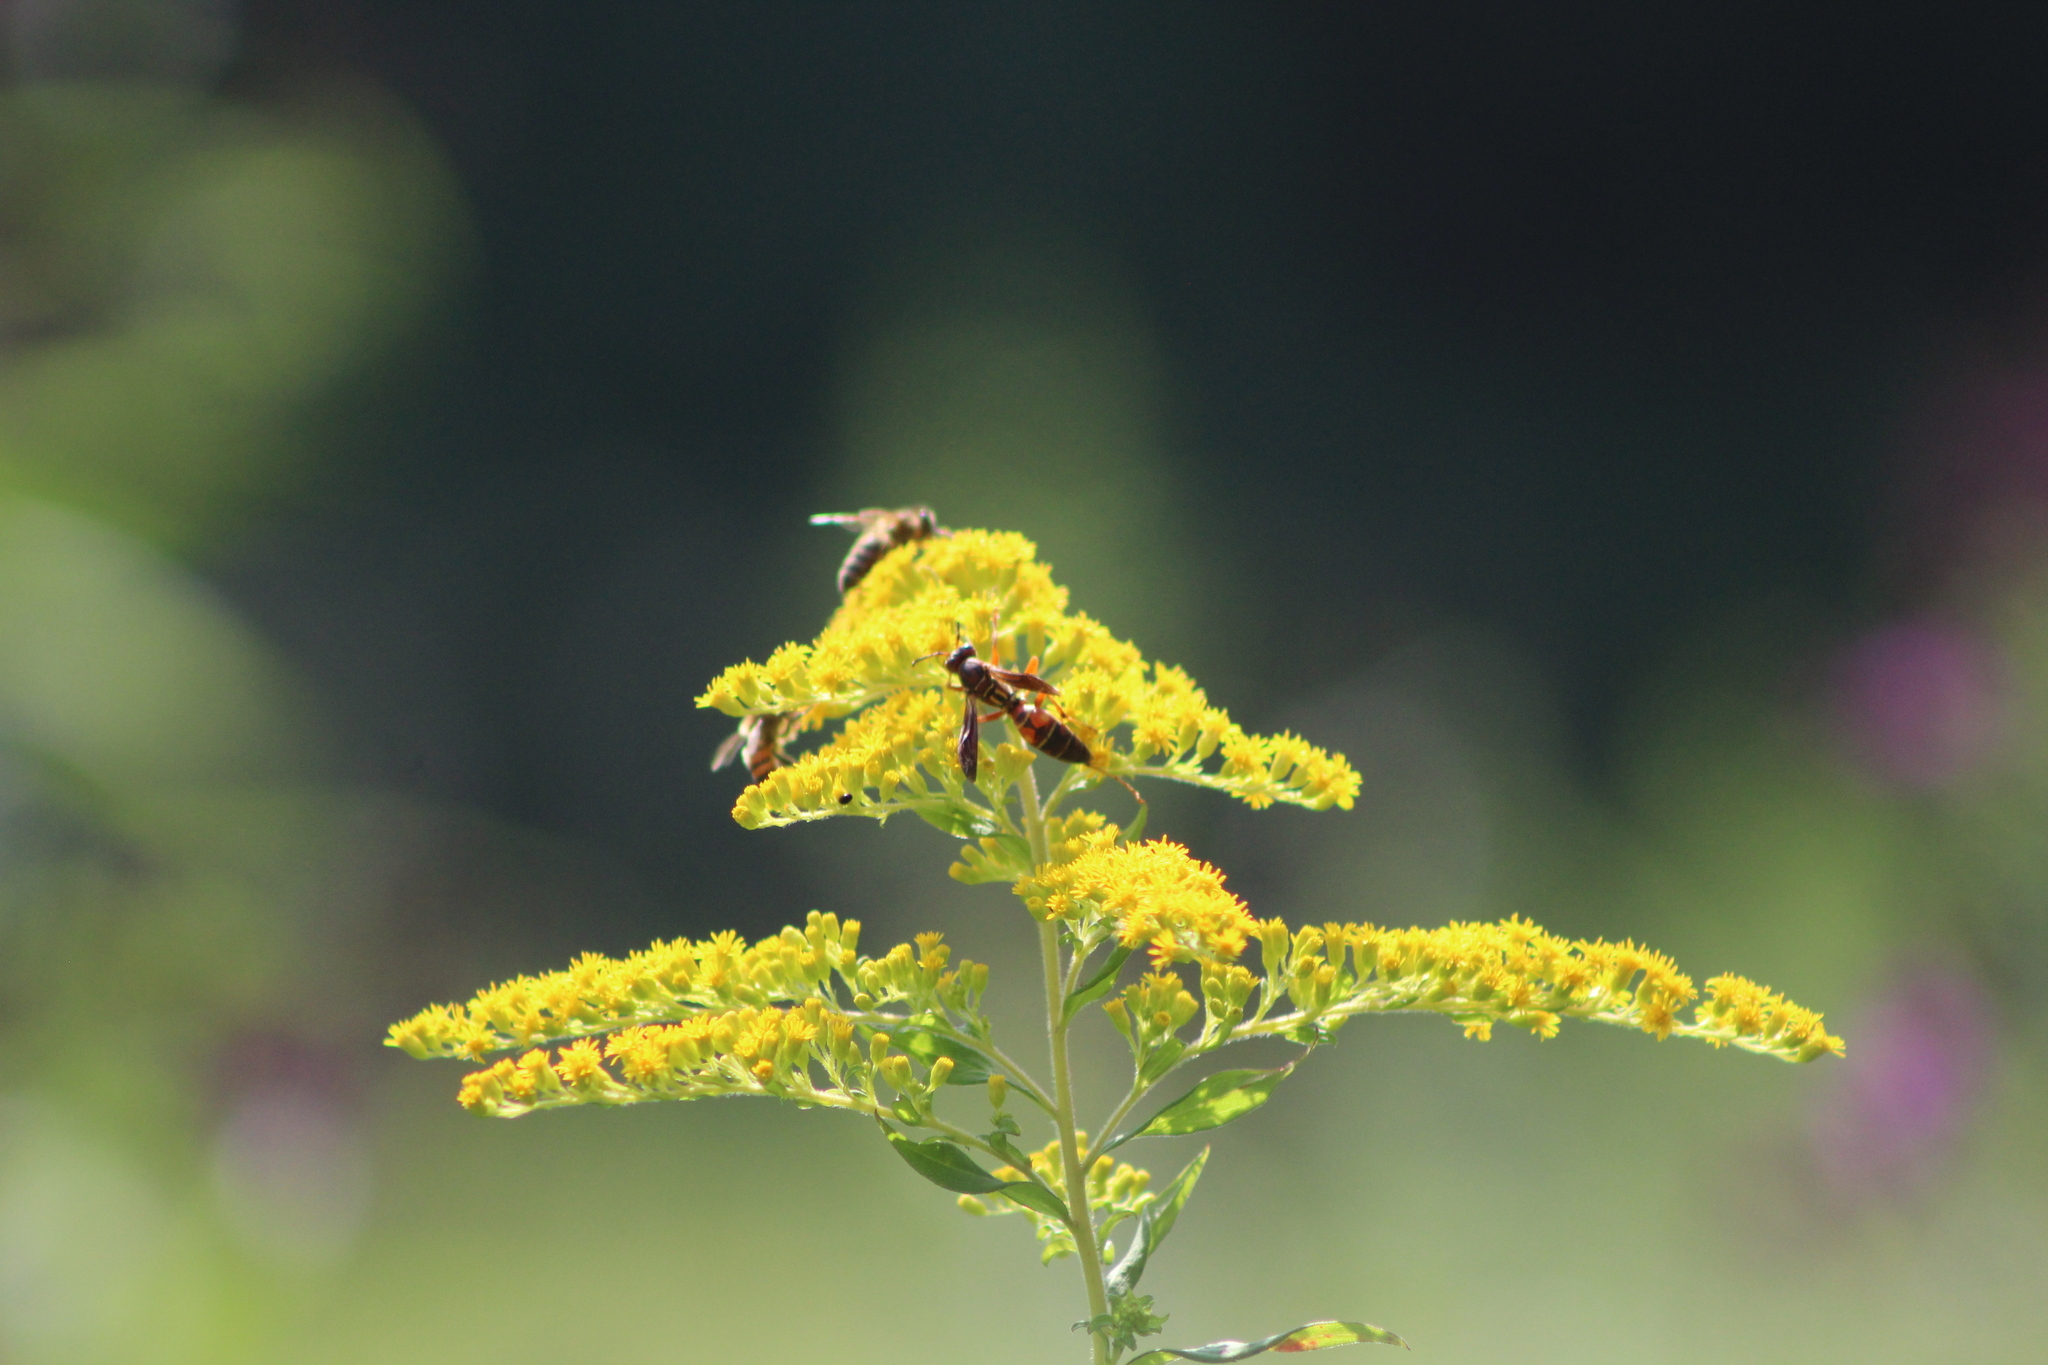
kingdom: Animalia
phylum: Arthropoda
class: Insecta
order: Hymenoptera
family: Eumenidae
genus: Polistes
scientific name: Polistes fuscatus
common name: Dark paper wasp
